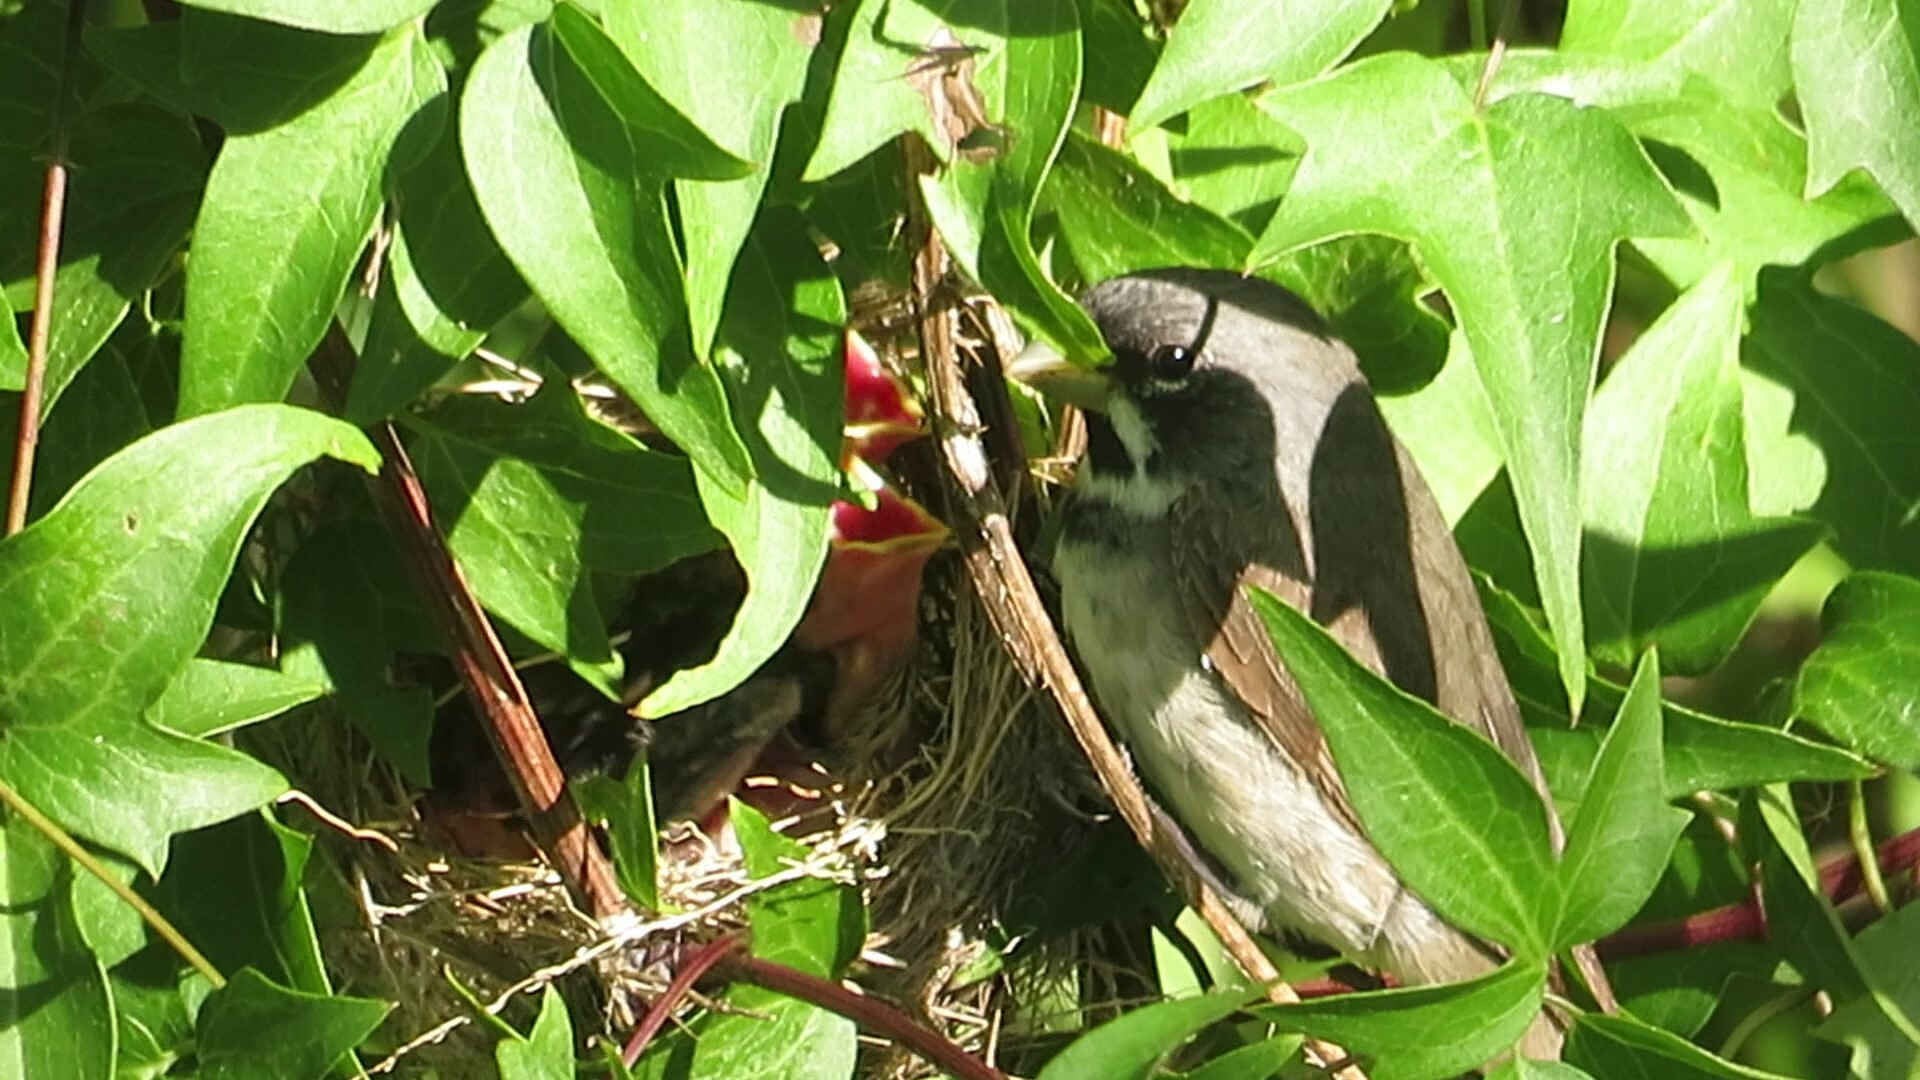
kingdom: Animalia
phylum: Chordata
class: Aves
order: Passeriformes
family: Thraupidae
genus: Sporophila
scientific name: Sporophila caerulescens
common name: Double-collared seedeater
